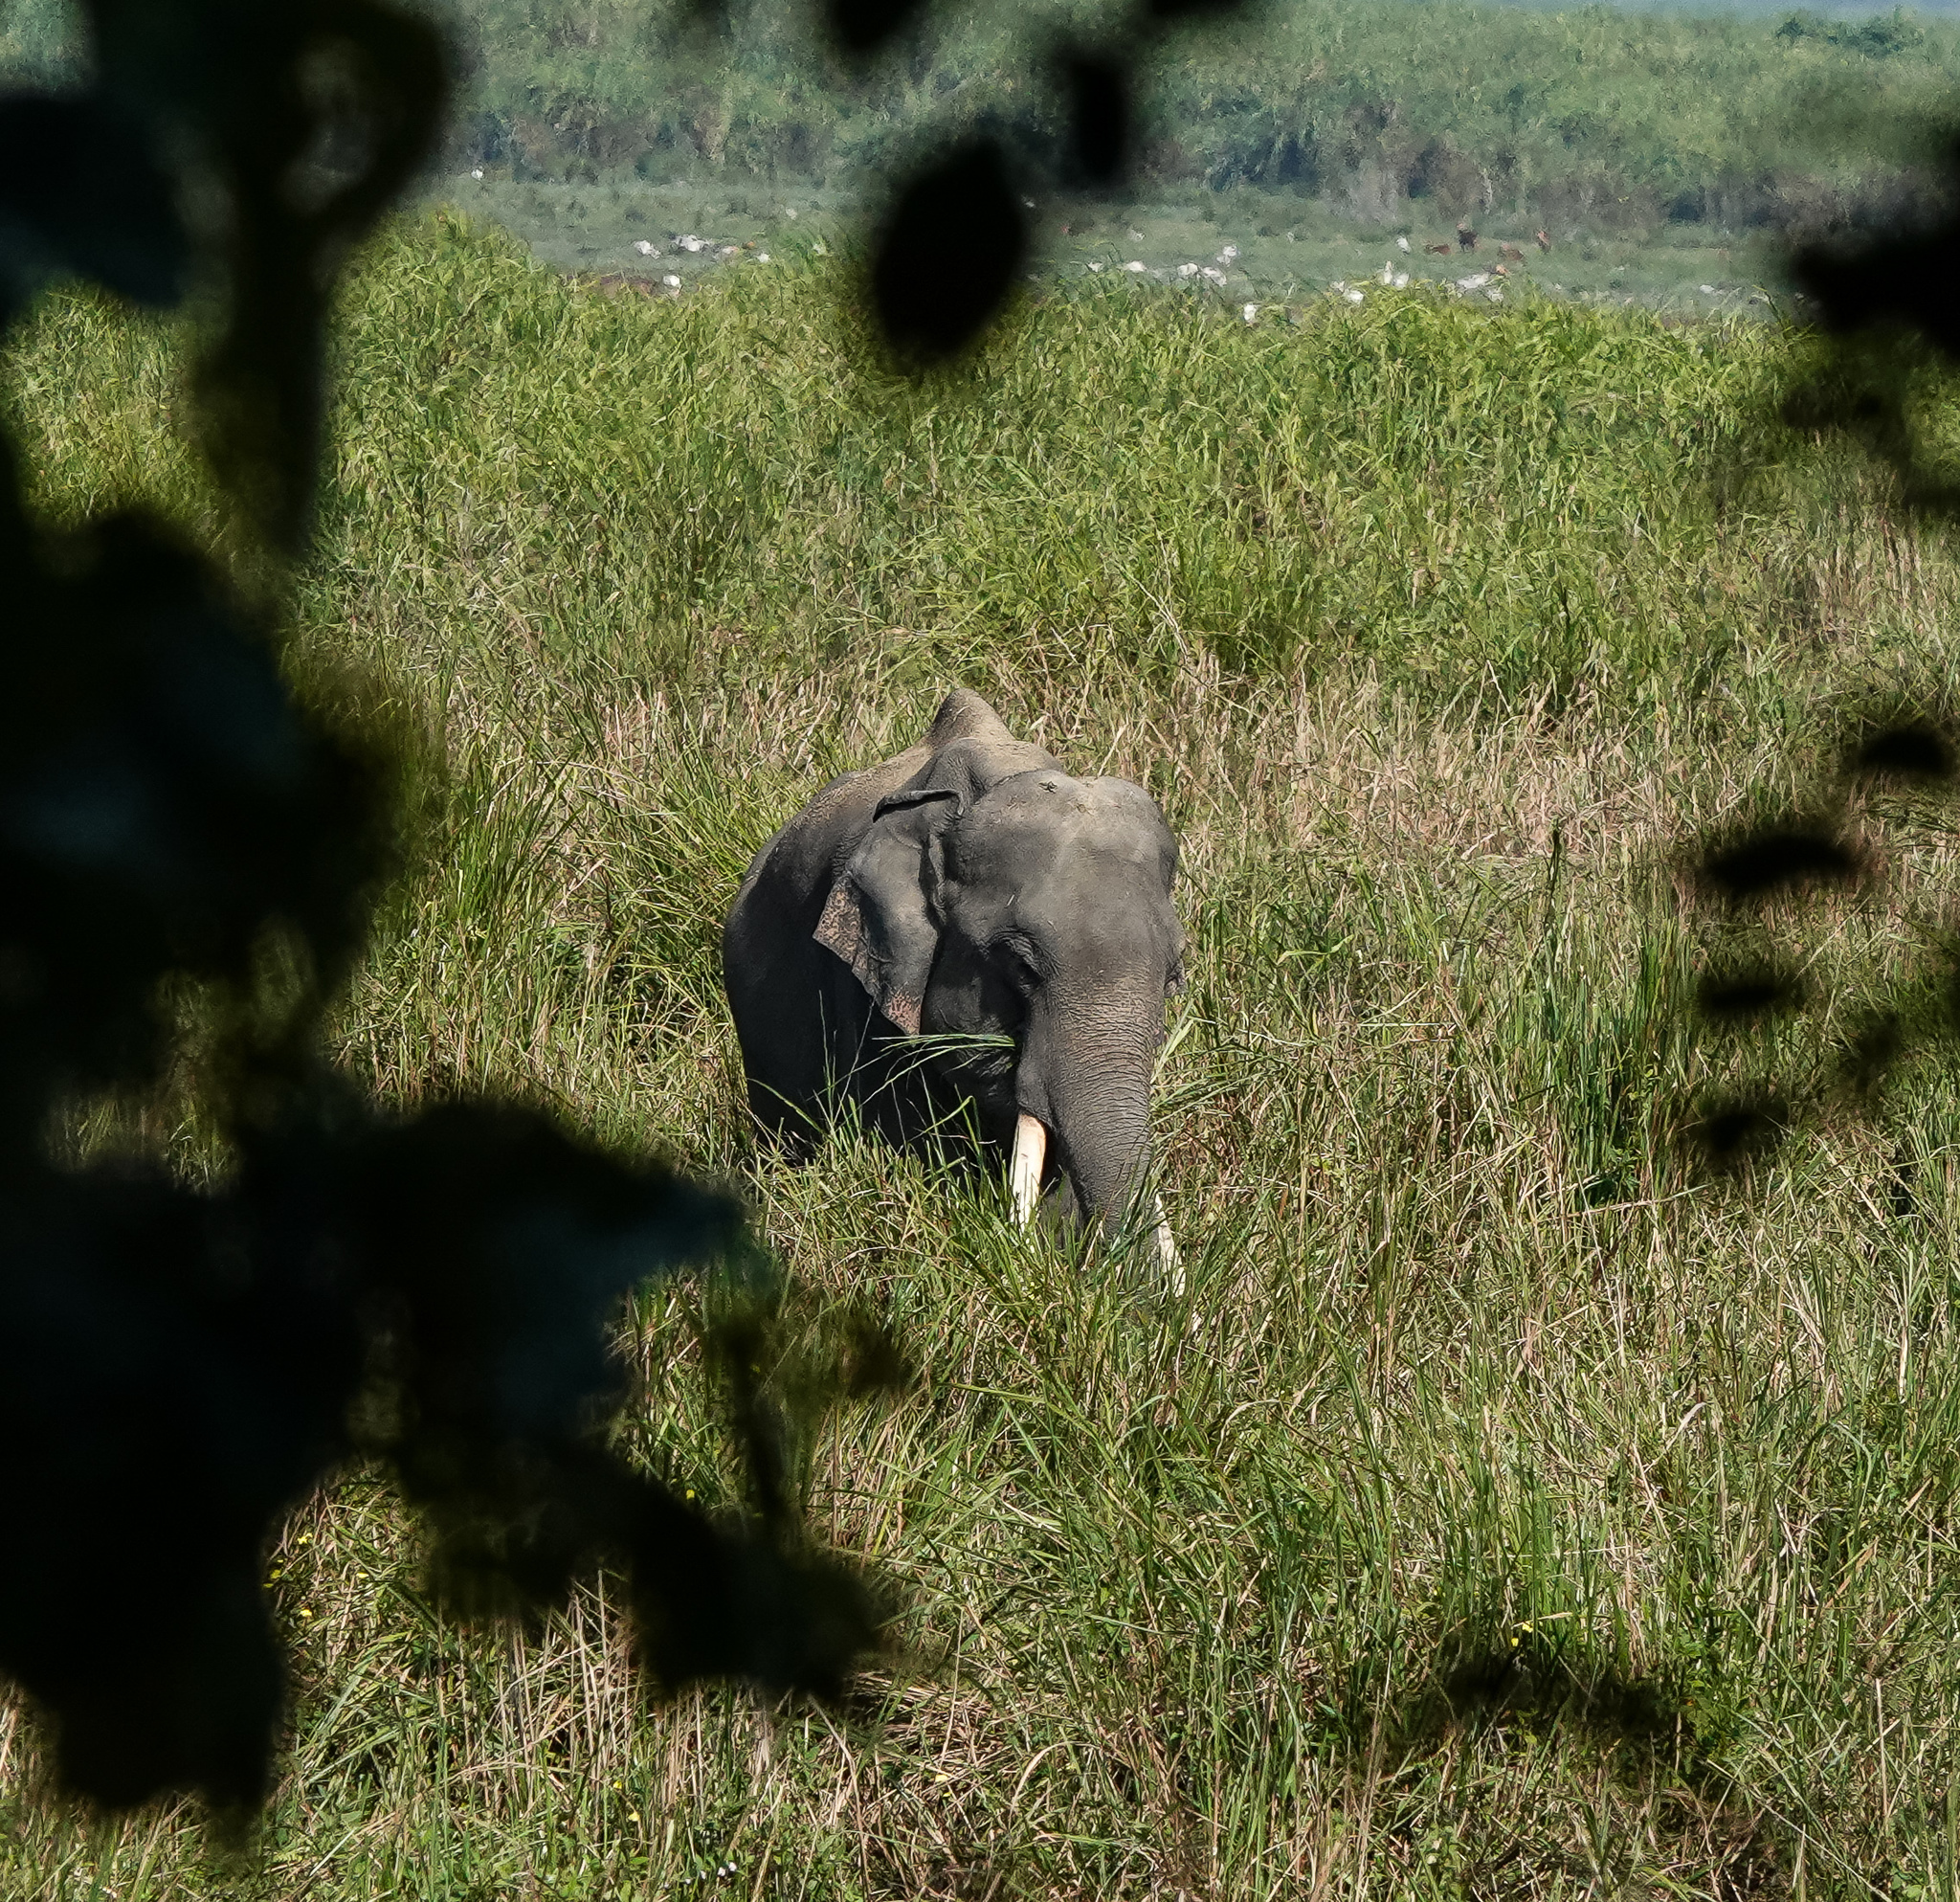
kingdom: Animalia
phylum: Chordata
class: Mammalia
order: Proboscidea
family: Elephantidae
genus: Elephas
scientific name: Elephas maximus
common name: Asian elephant
